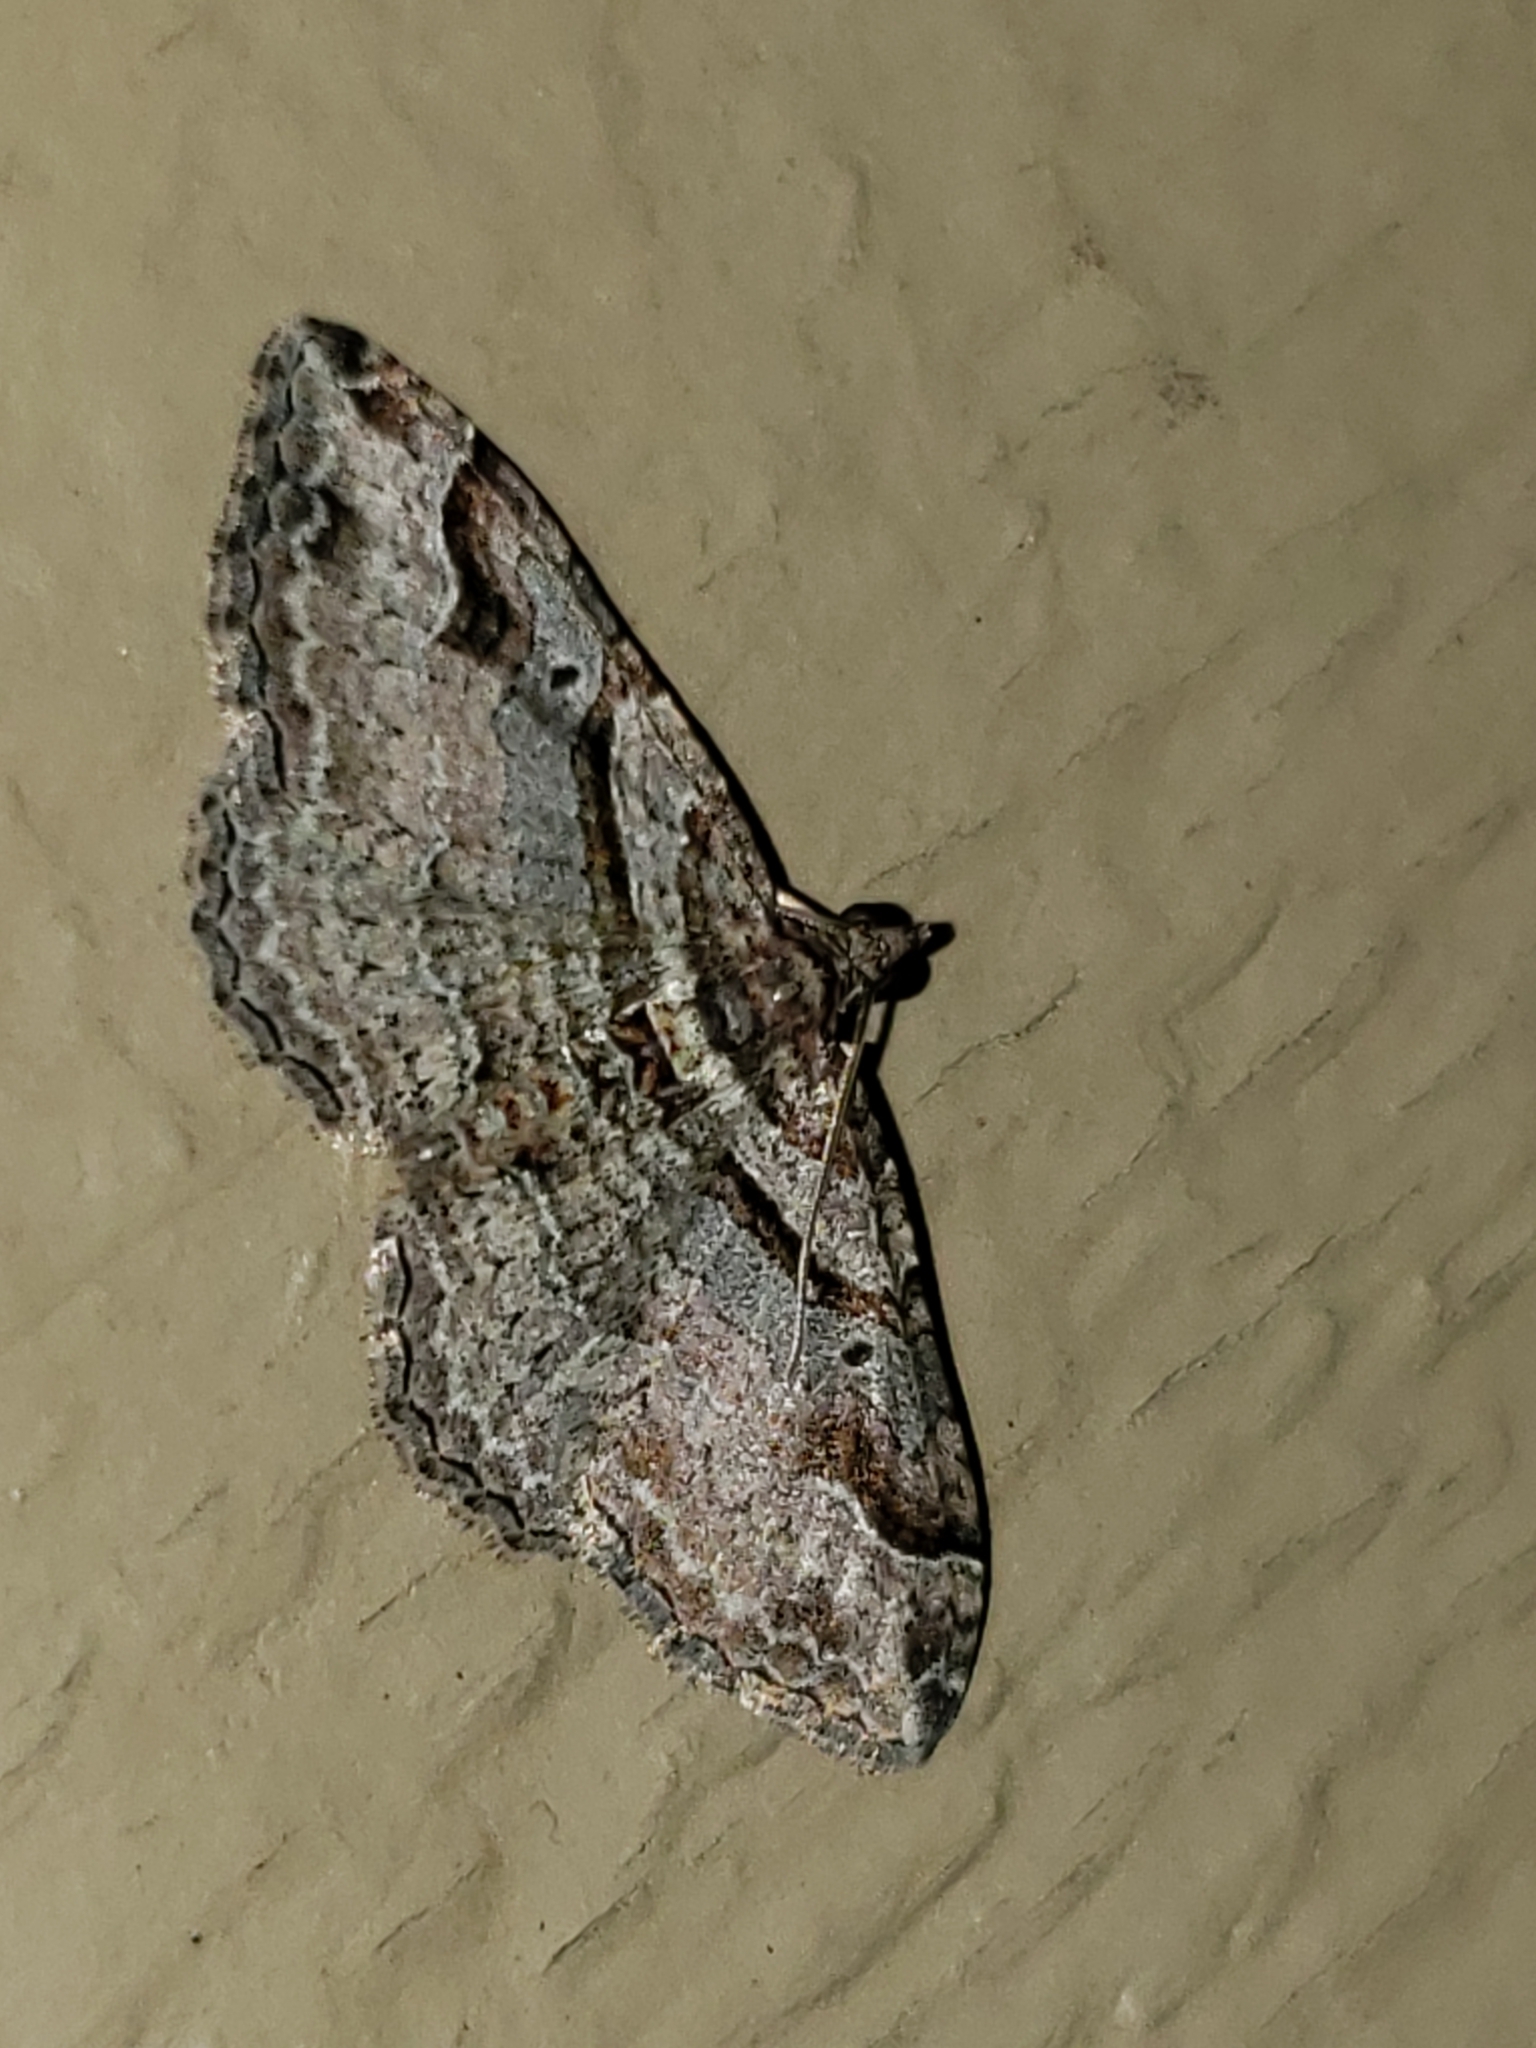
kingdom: Animalia
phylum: Arthropoda
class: Insecta
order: Lepidoptera
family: Geometridae
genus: Costaconvexa
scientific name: Costaconvexa centrostrigaria
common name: Bent-line carpet
